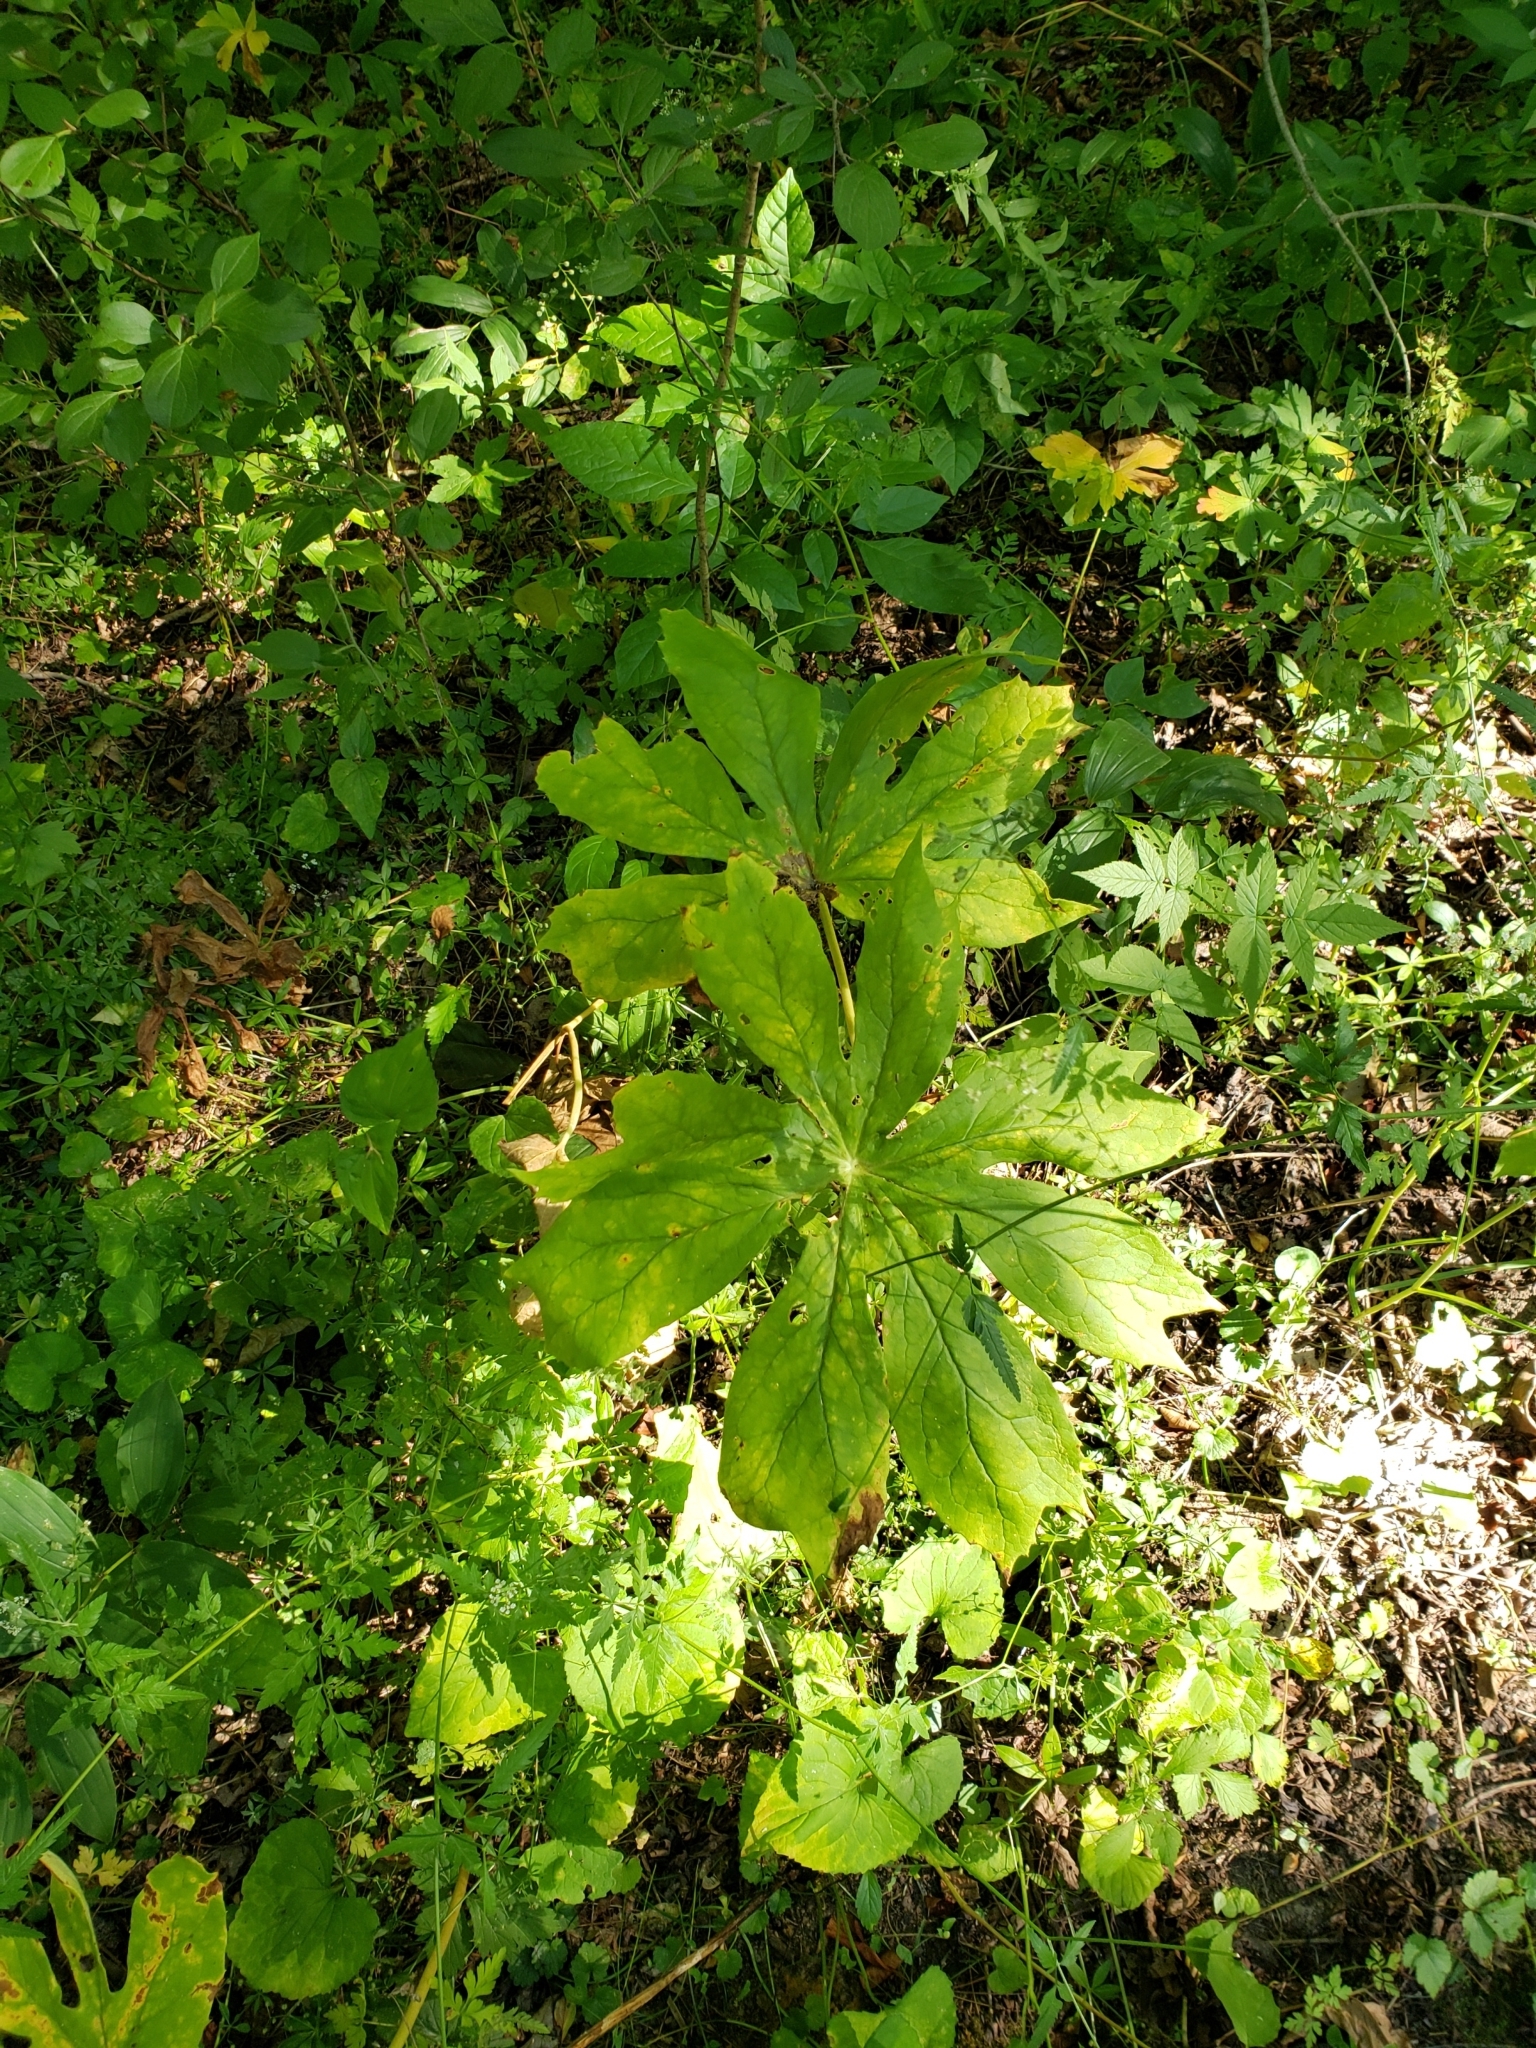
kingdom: Plantae
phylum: Tracheophyta
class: Magnoliopsida
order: Ranunculales
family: Berberidaceae
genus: Podophyllum
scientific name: Podophyllum peltatum
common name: Wild mandrake
